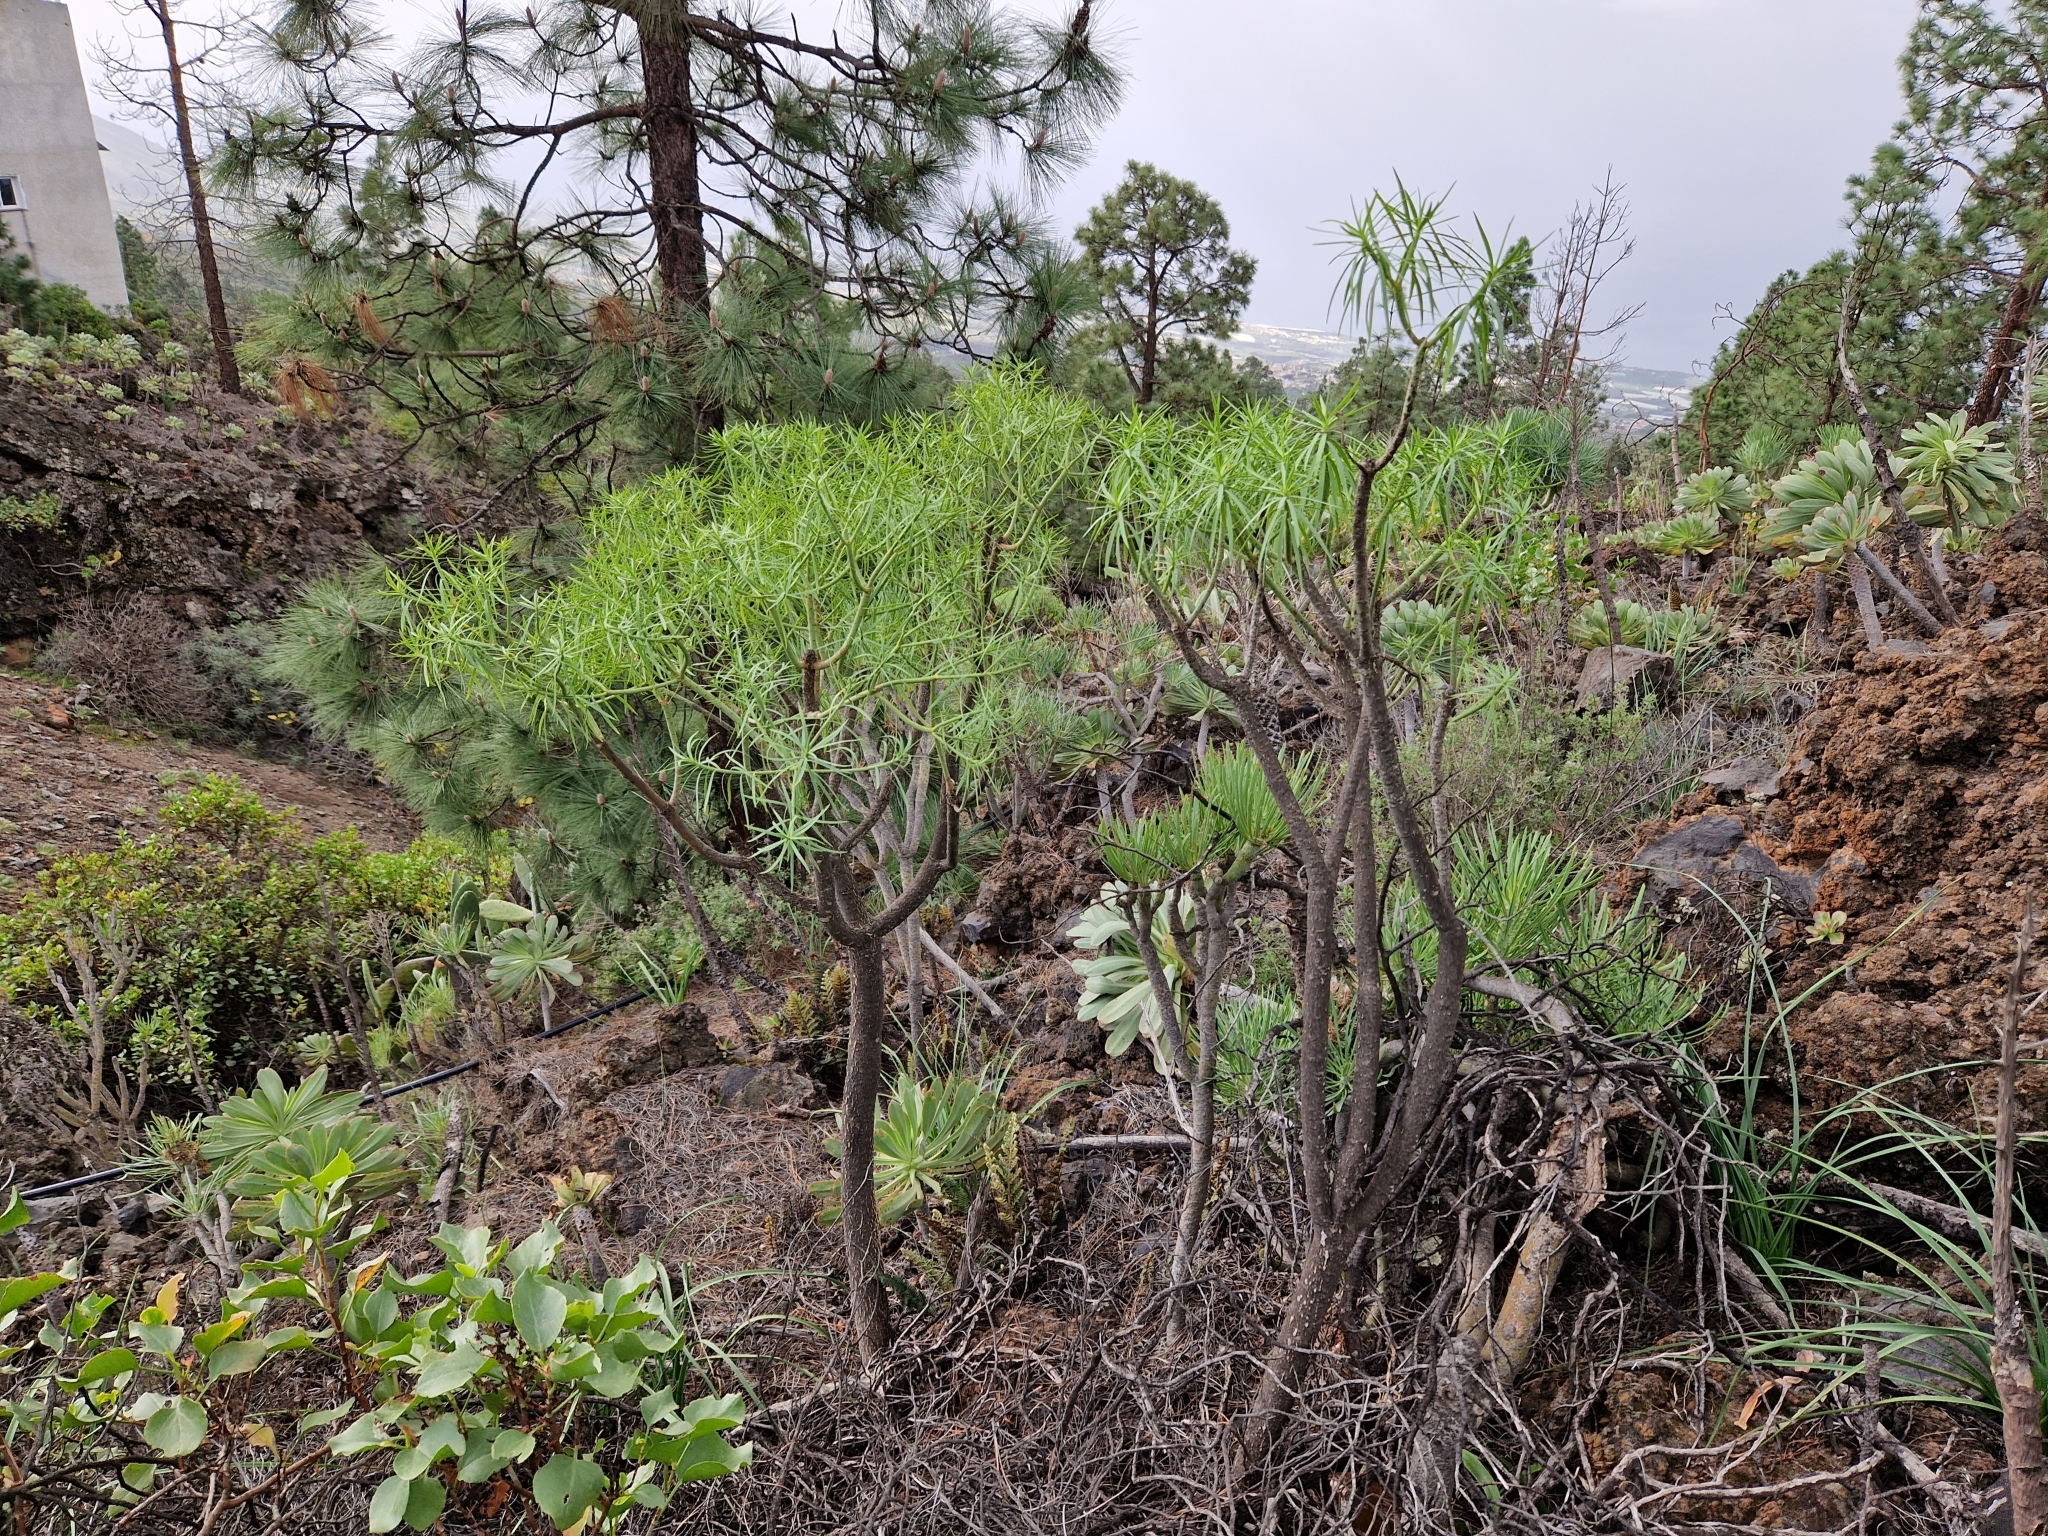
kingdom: Plantae
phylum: Tracheophyta
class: Magnoliopsida
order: Malpighiales
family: Euphorbiaceae
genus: Euphorbia
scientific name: Euphorbia lamarckii
